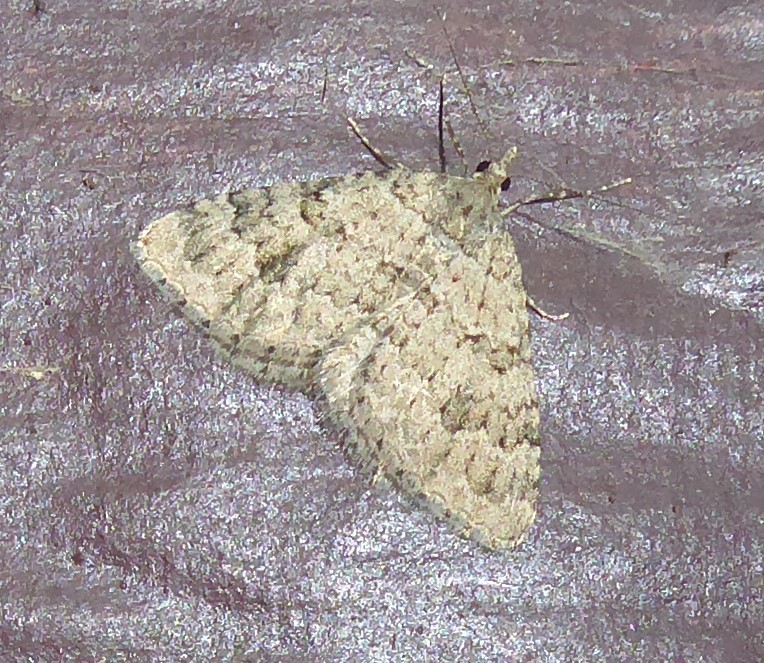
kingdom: Animalia
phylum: Arthropoda
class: Insecta
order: Lepidoptera
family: Geometridae
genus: Helastia
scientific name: Helastia corcularia
